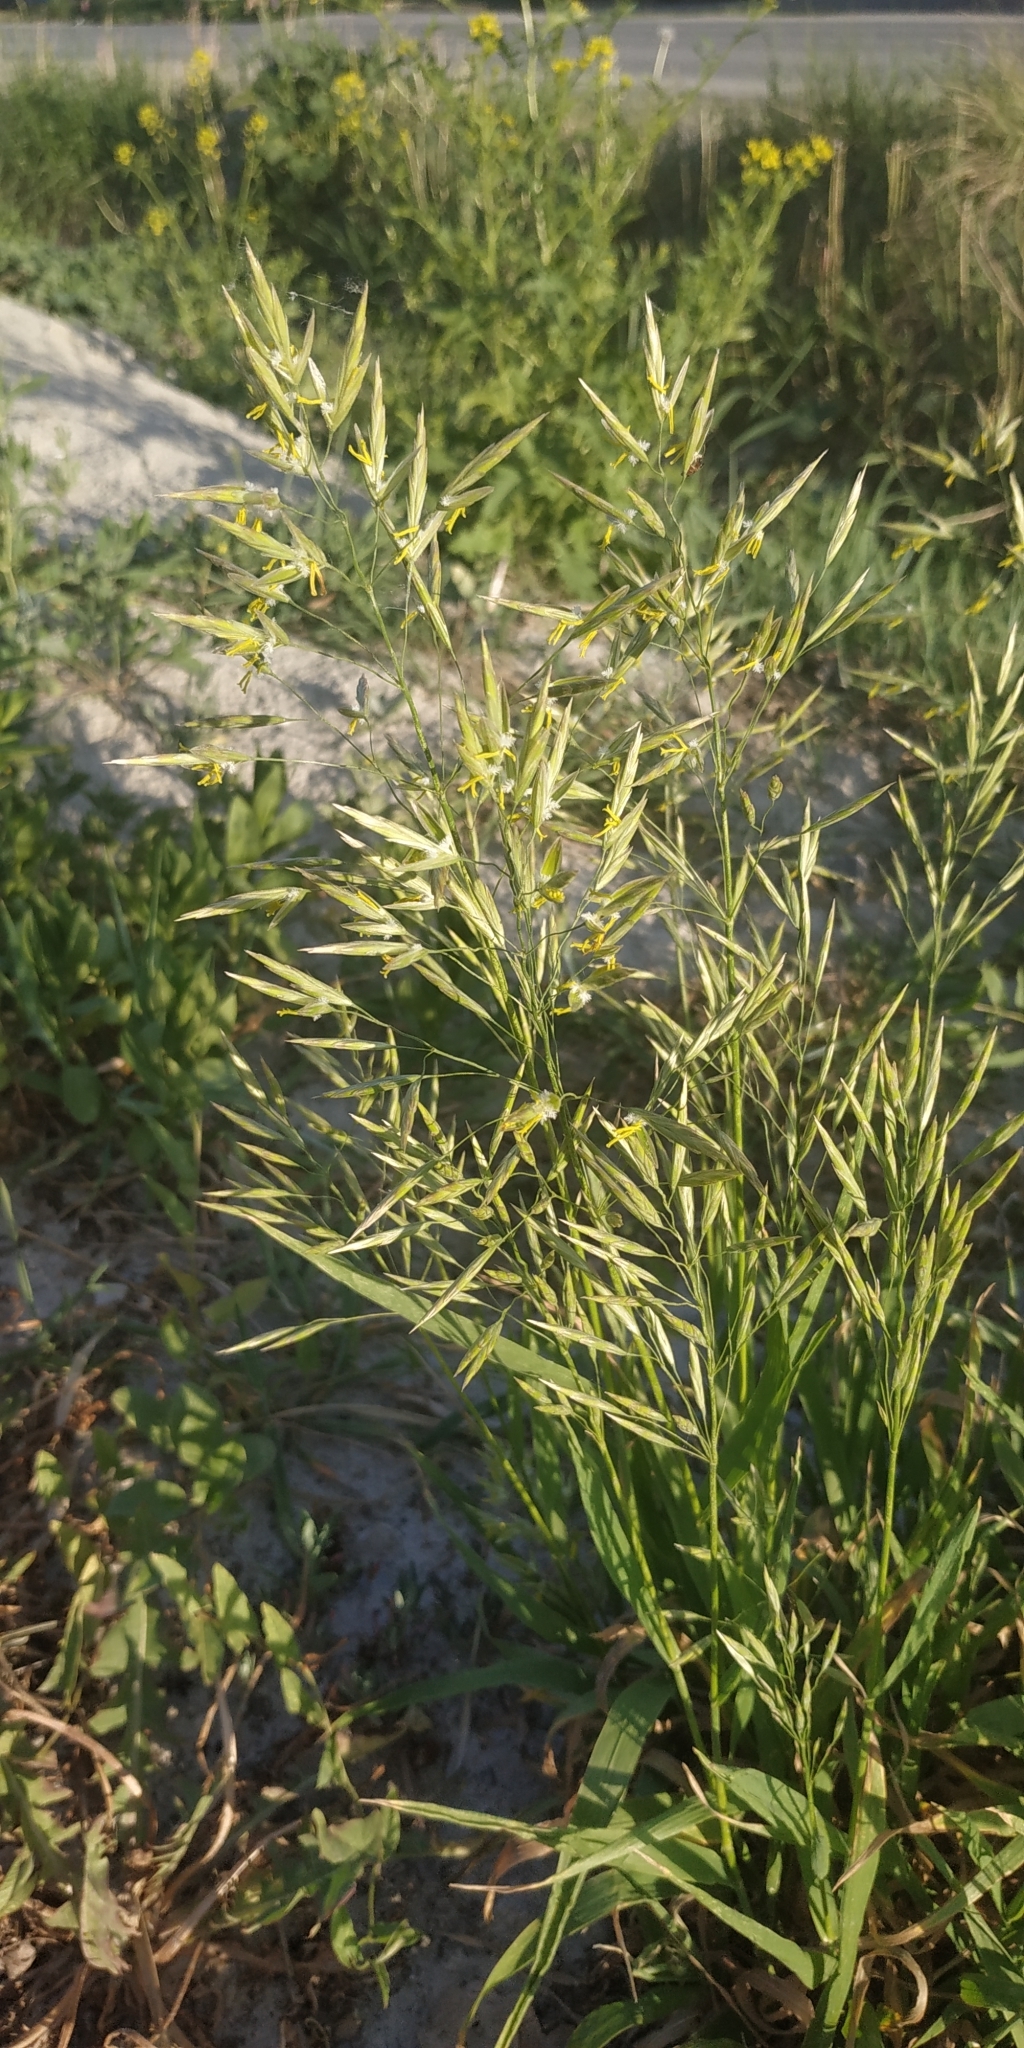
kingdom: Plantae
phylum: Tracheophyta
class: Liliopsida
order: Poales
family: Poaceae
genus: Bromus
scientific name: Bromus inermis
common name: Smooth brome
